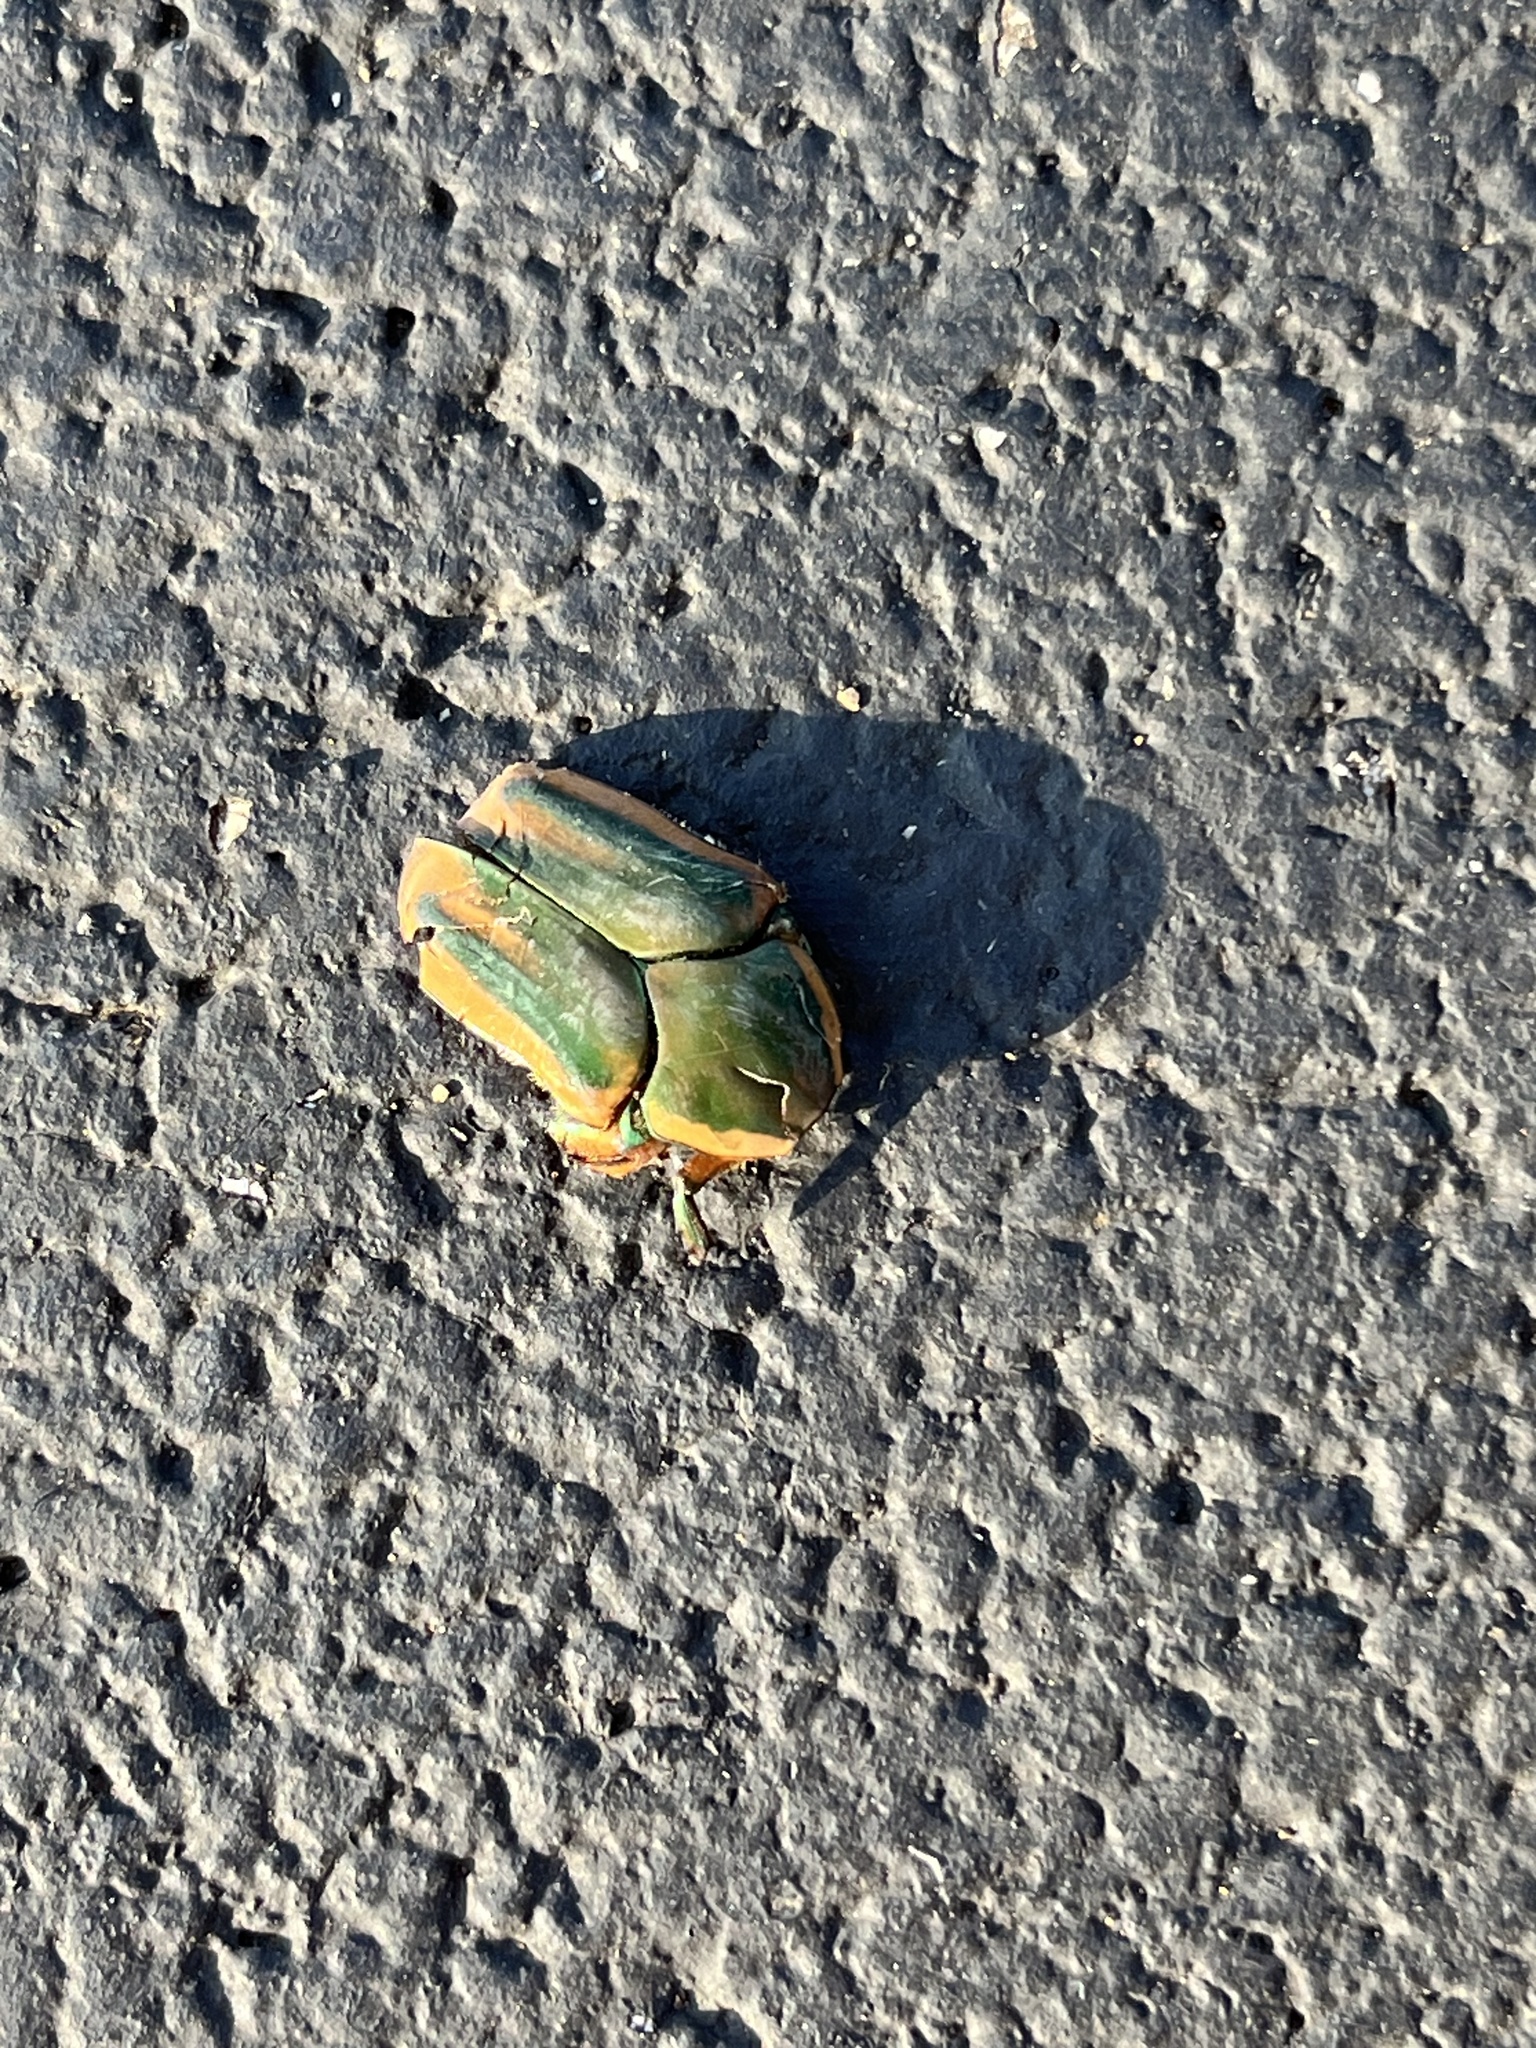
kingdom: Animalia
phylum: Arthropoda
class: Insecta
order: Coleoptera
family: Scarabaeidae
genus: Cotinis
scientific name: Cotinis nitida
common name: Common green june beetle
